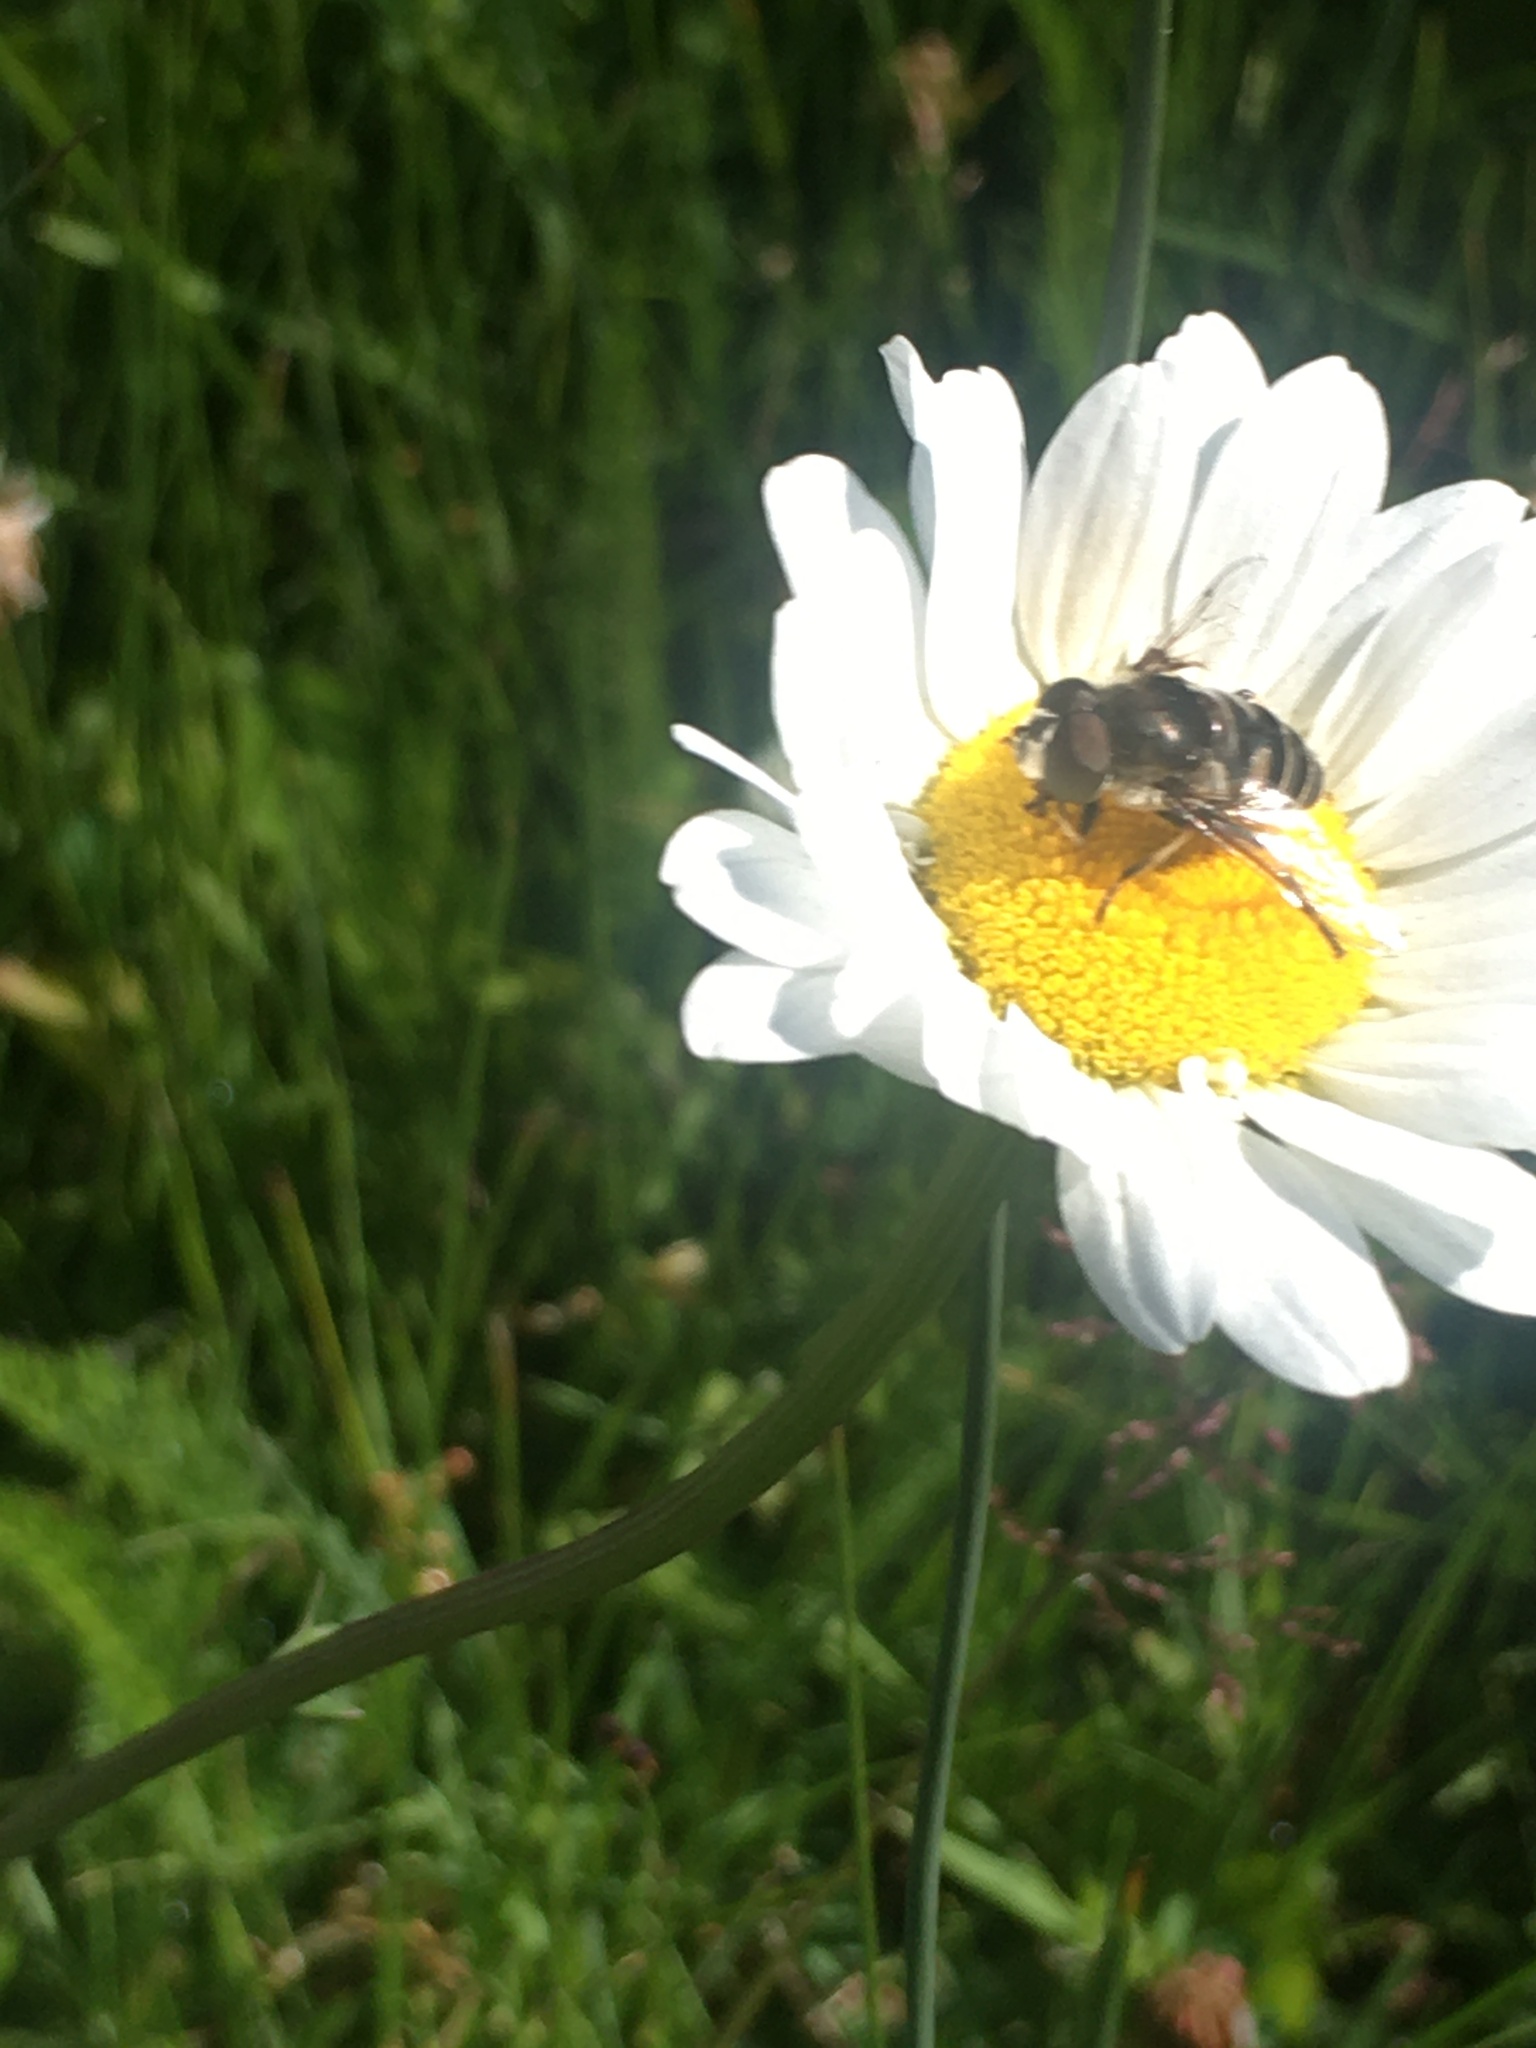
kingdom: Animalia
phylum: Arthropoda
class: Insecta
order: Diptera
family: Syrphidae
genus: Eristalis
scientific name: Eristalis dimidiata
